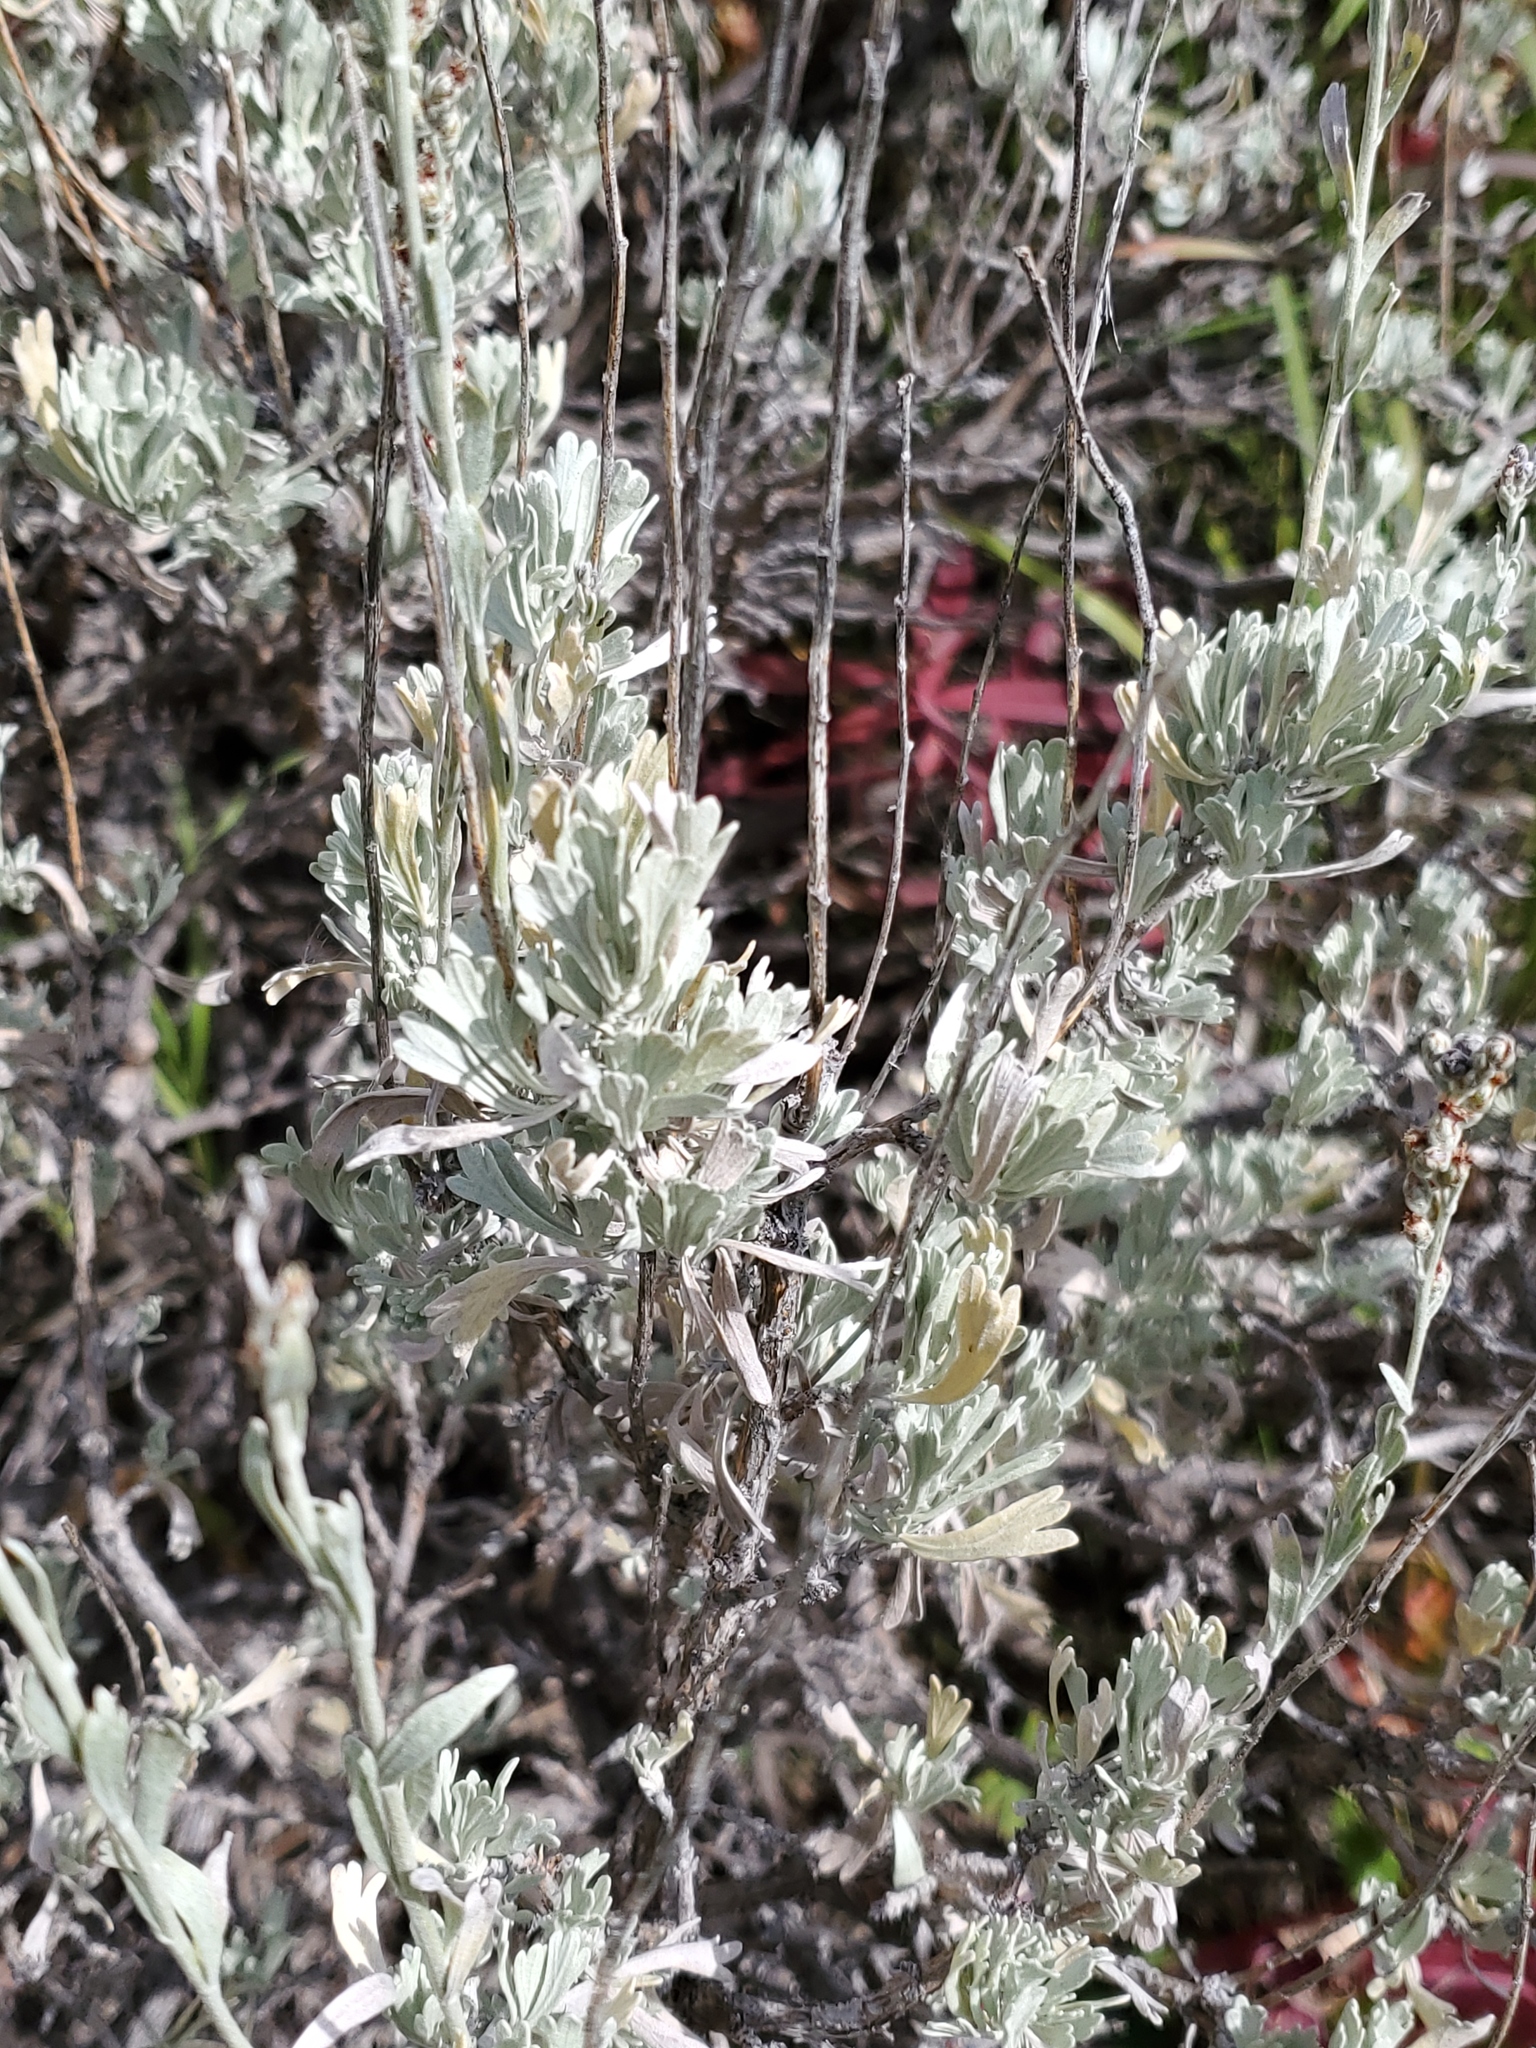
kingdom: Plantae
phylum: Tracheophyta
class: Magnoliopsida
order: Asterales
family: Asteraceae
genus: Artemisia
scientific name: Artemisia tridentata
